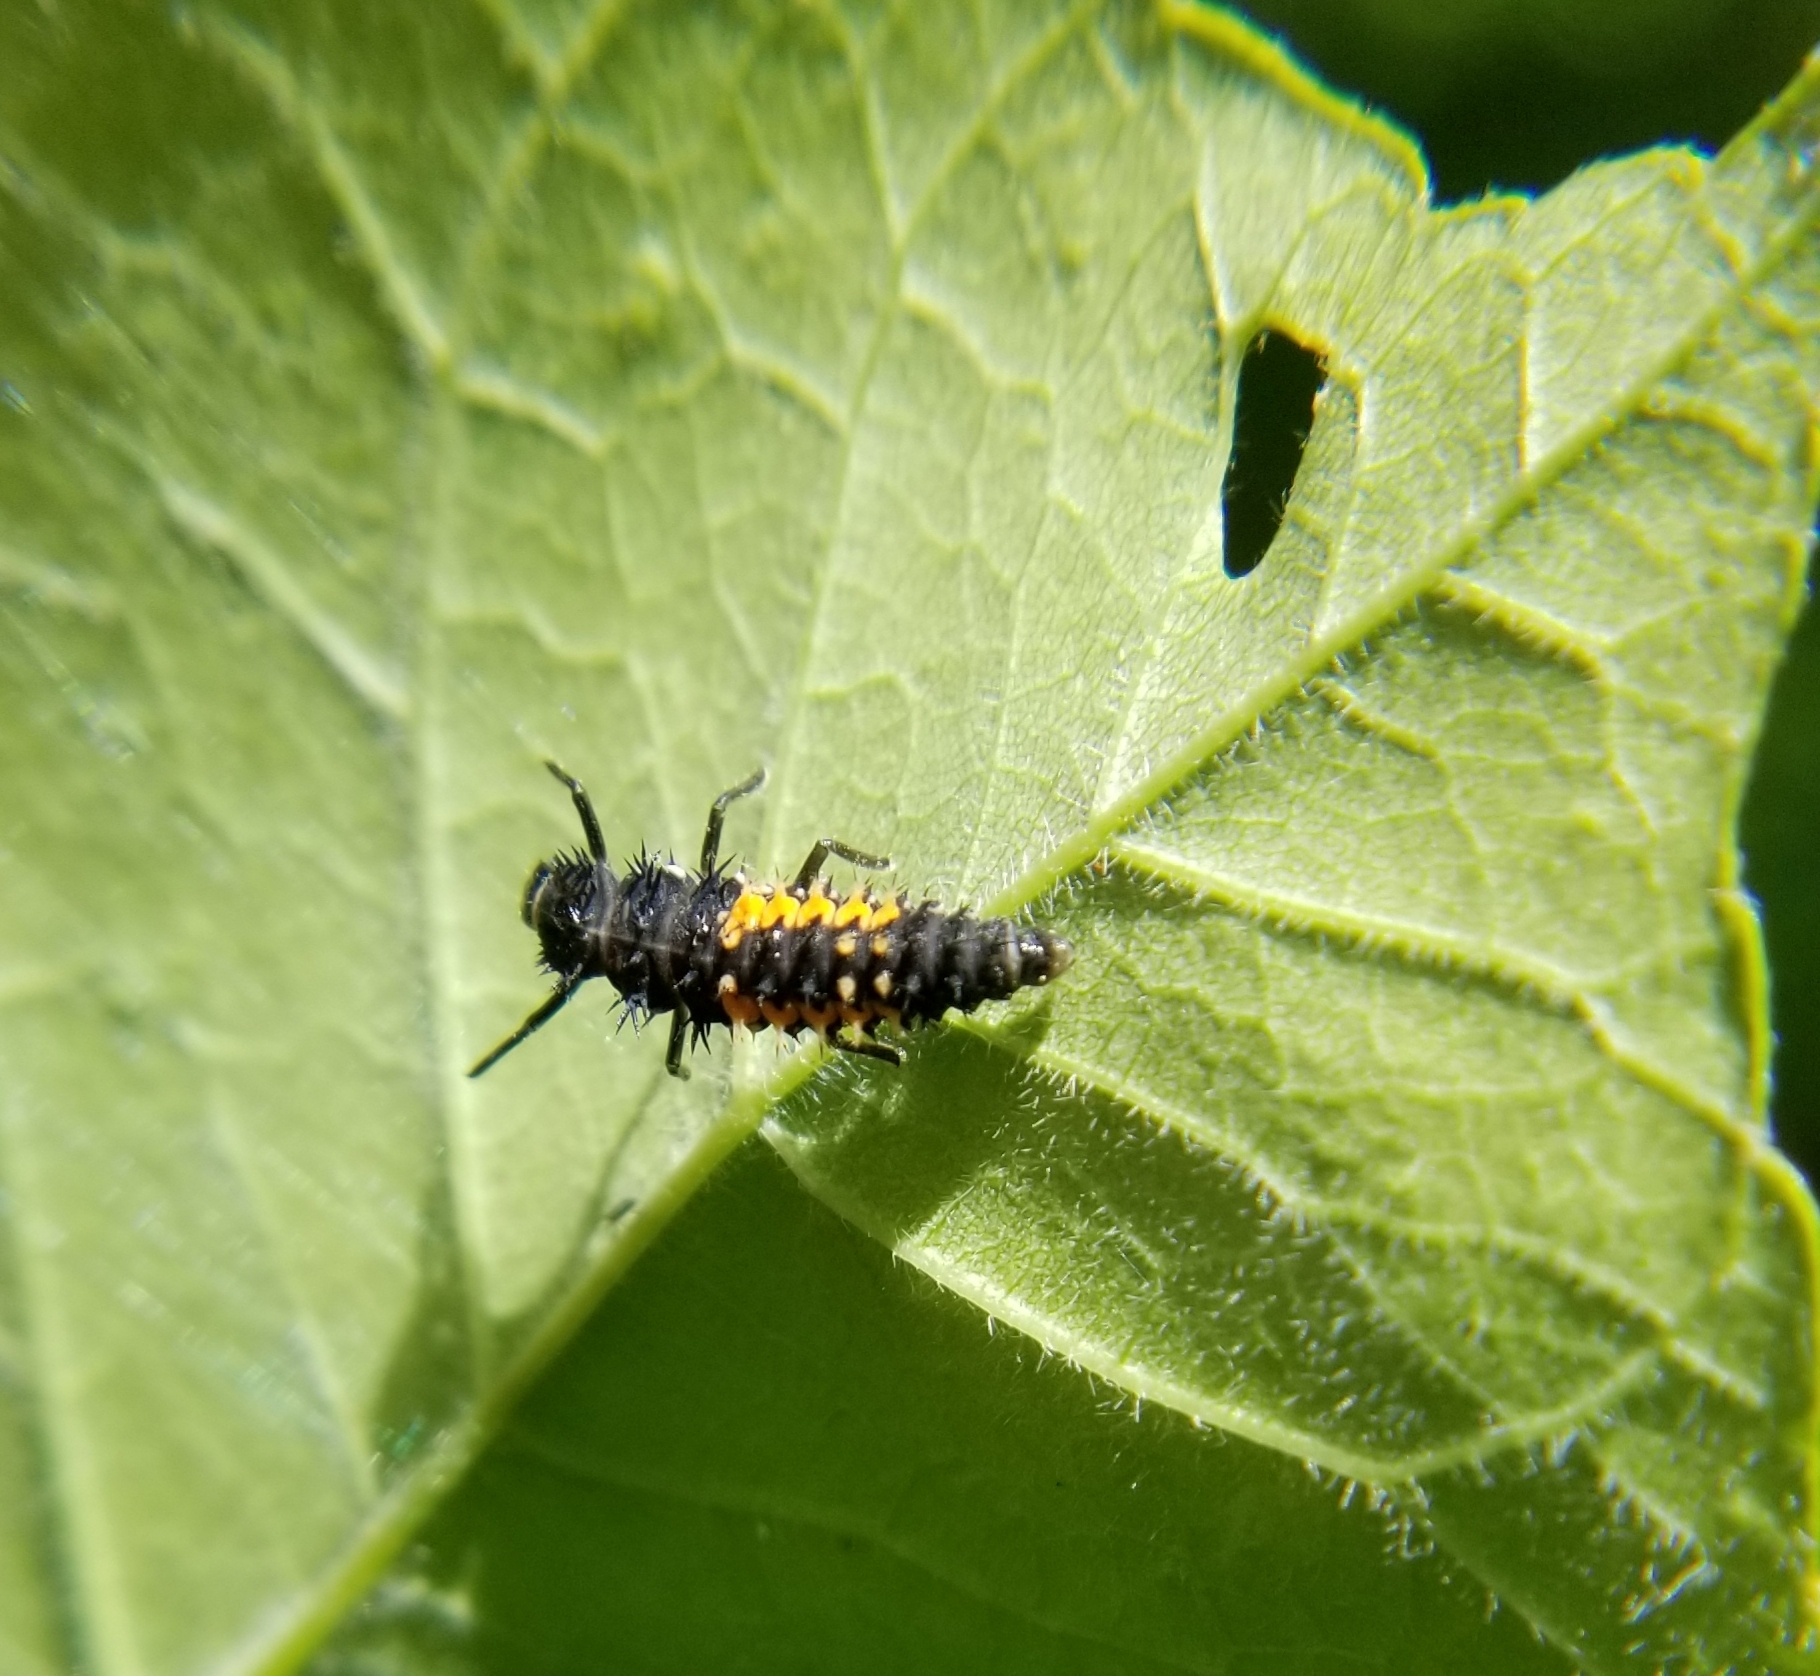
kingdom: Animalia
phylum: Arthropoda
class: Insecta
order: Coleoptera
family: Coccinellidae
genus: Harmonia
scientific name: Harmonia axyridis
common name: Harlequin ladybird
